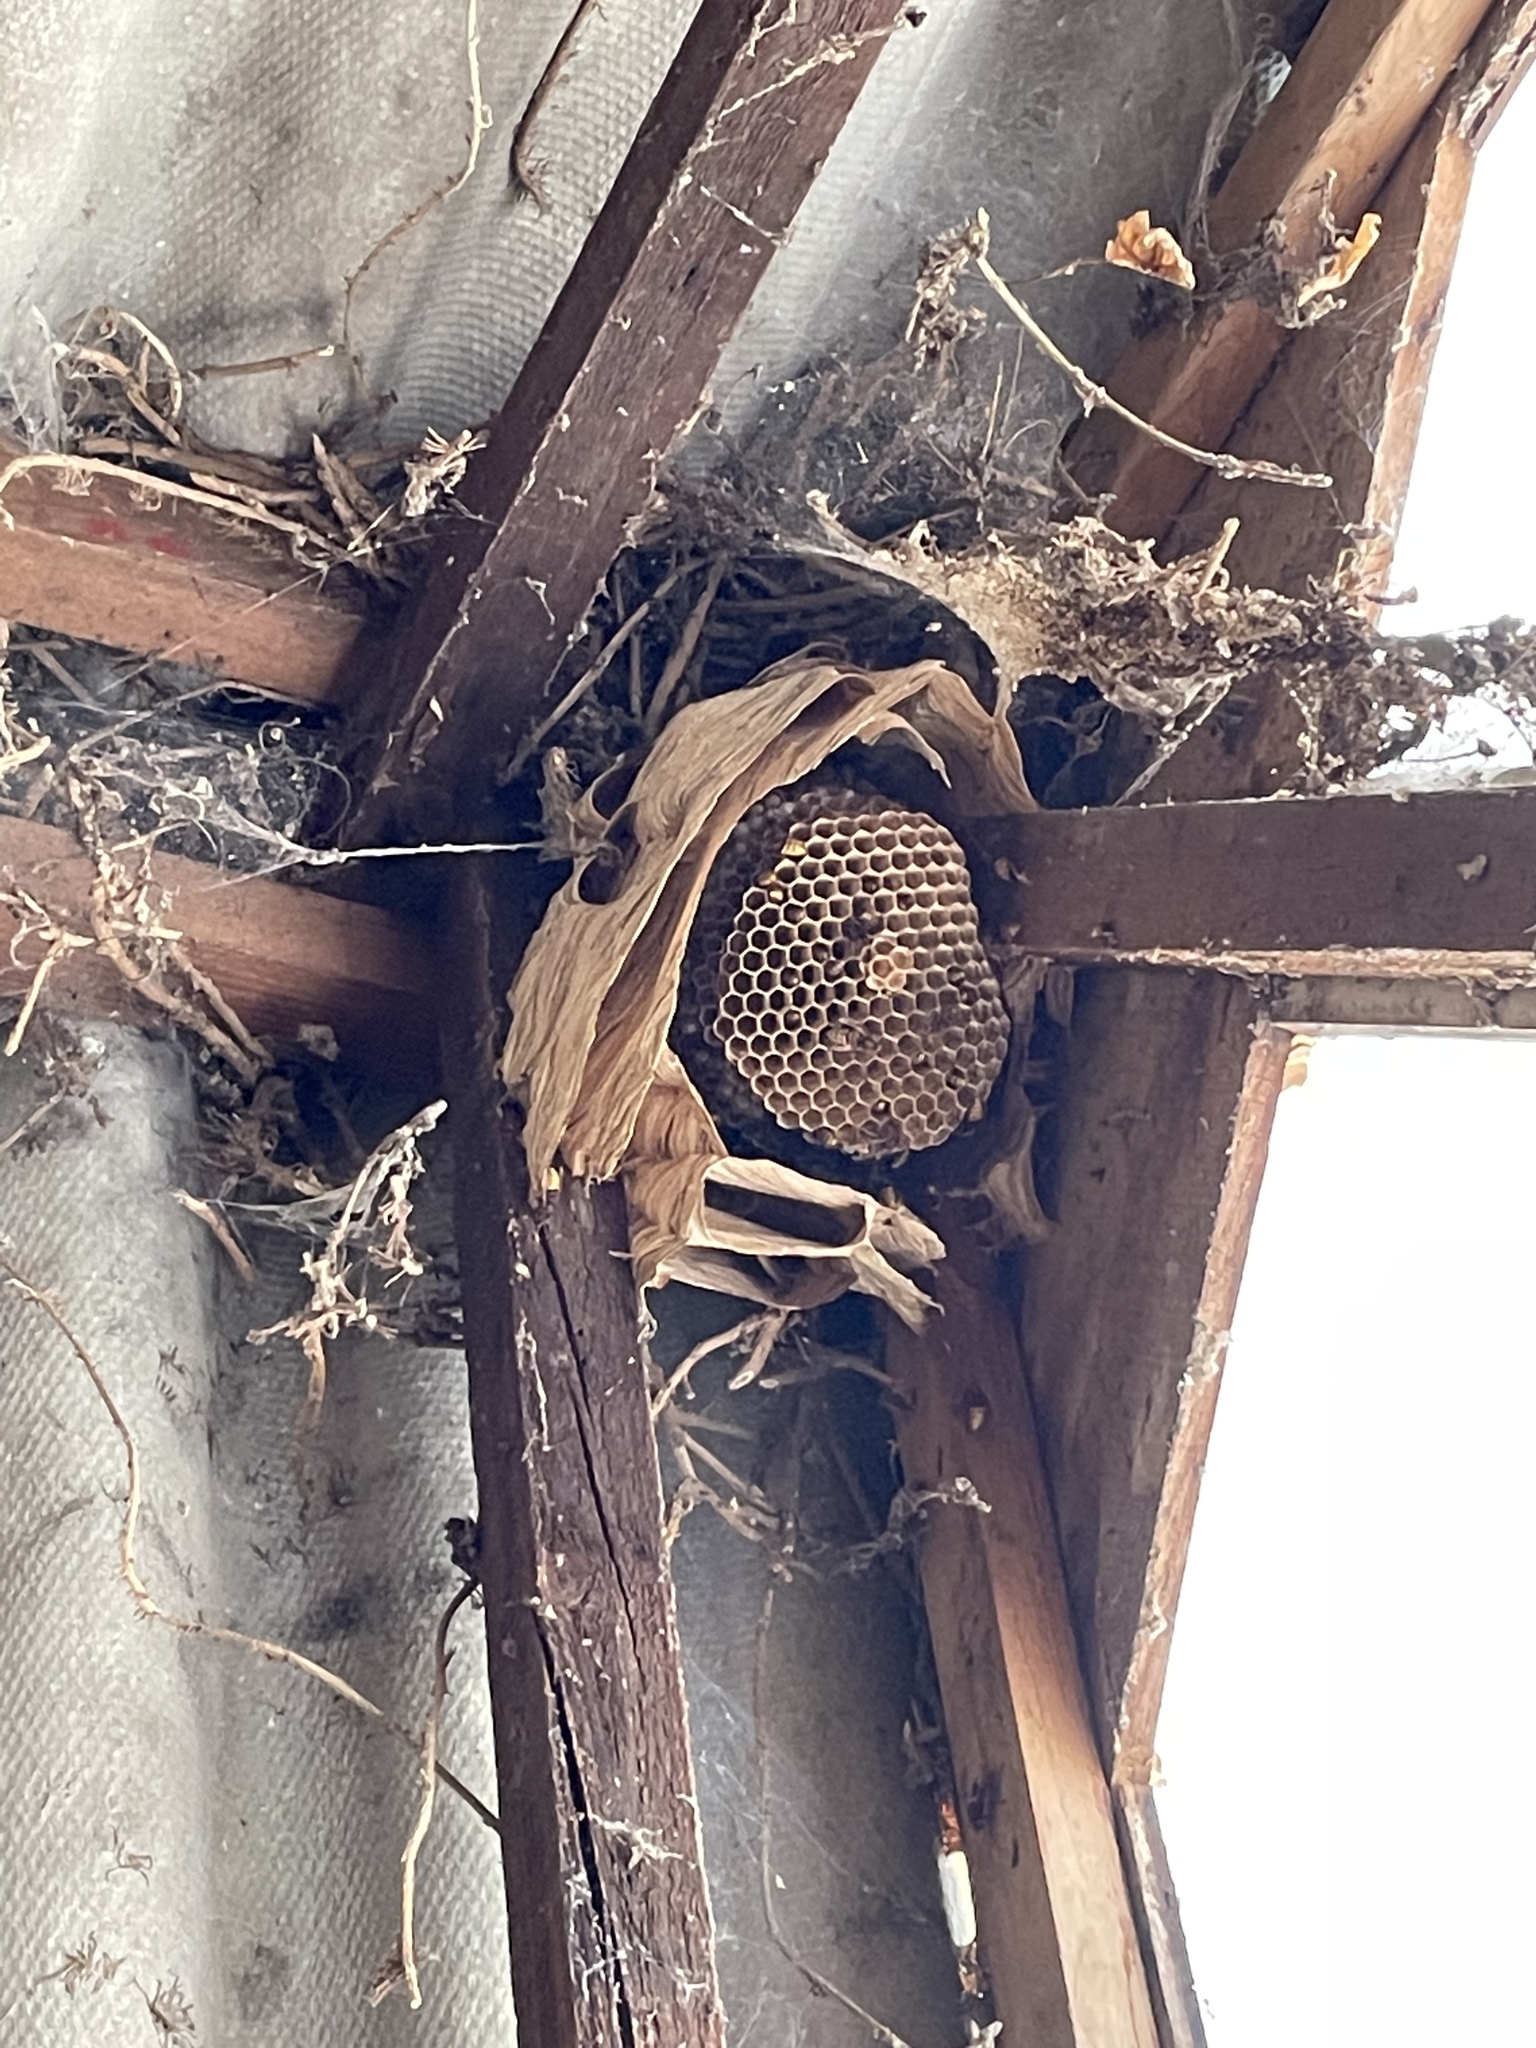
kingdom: Animalia
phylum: Arthropoda
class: Insecta
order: Hymenoptera
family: Vespidae
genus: Vespa
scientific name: Vespa crabro
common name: Hornet
